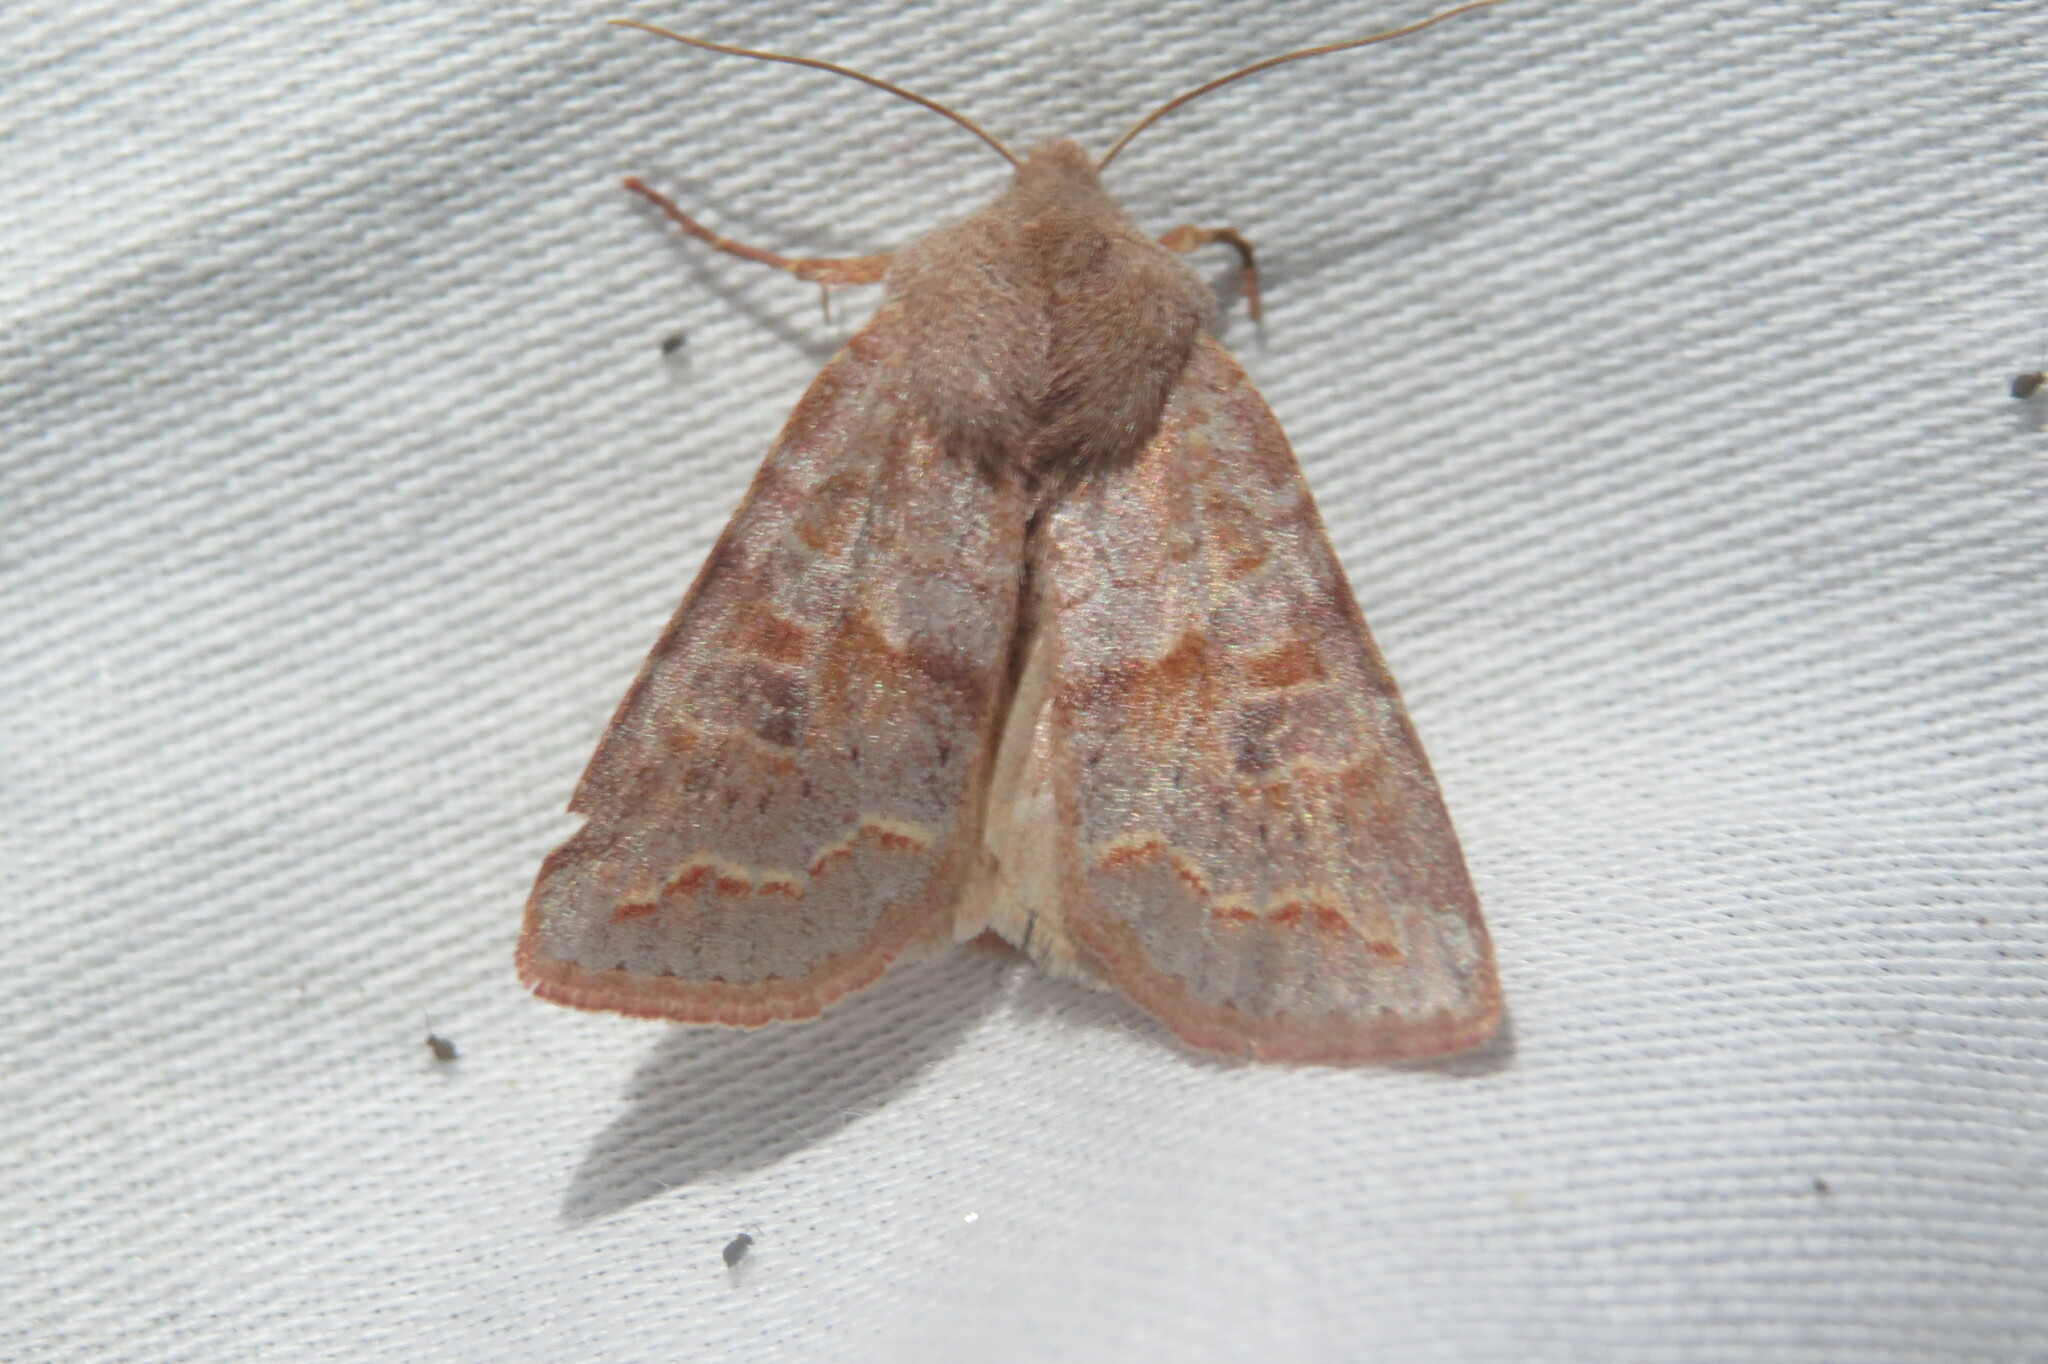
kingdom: Animalia
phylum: Arthropoda
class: Insecta
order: Lepidoptera
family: Noctuidae
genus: Orthosia
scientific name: Orthosia revicta
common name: Rusty whitesided caterpillar
